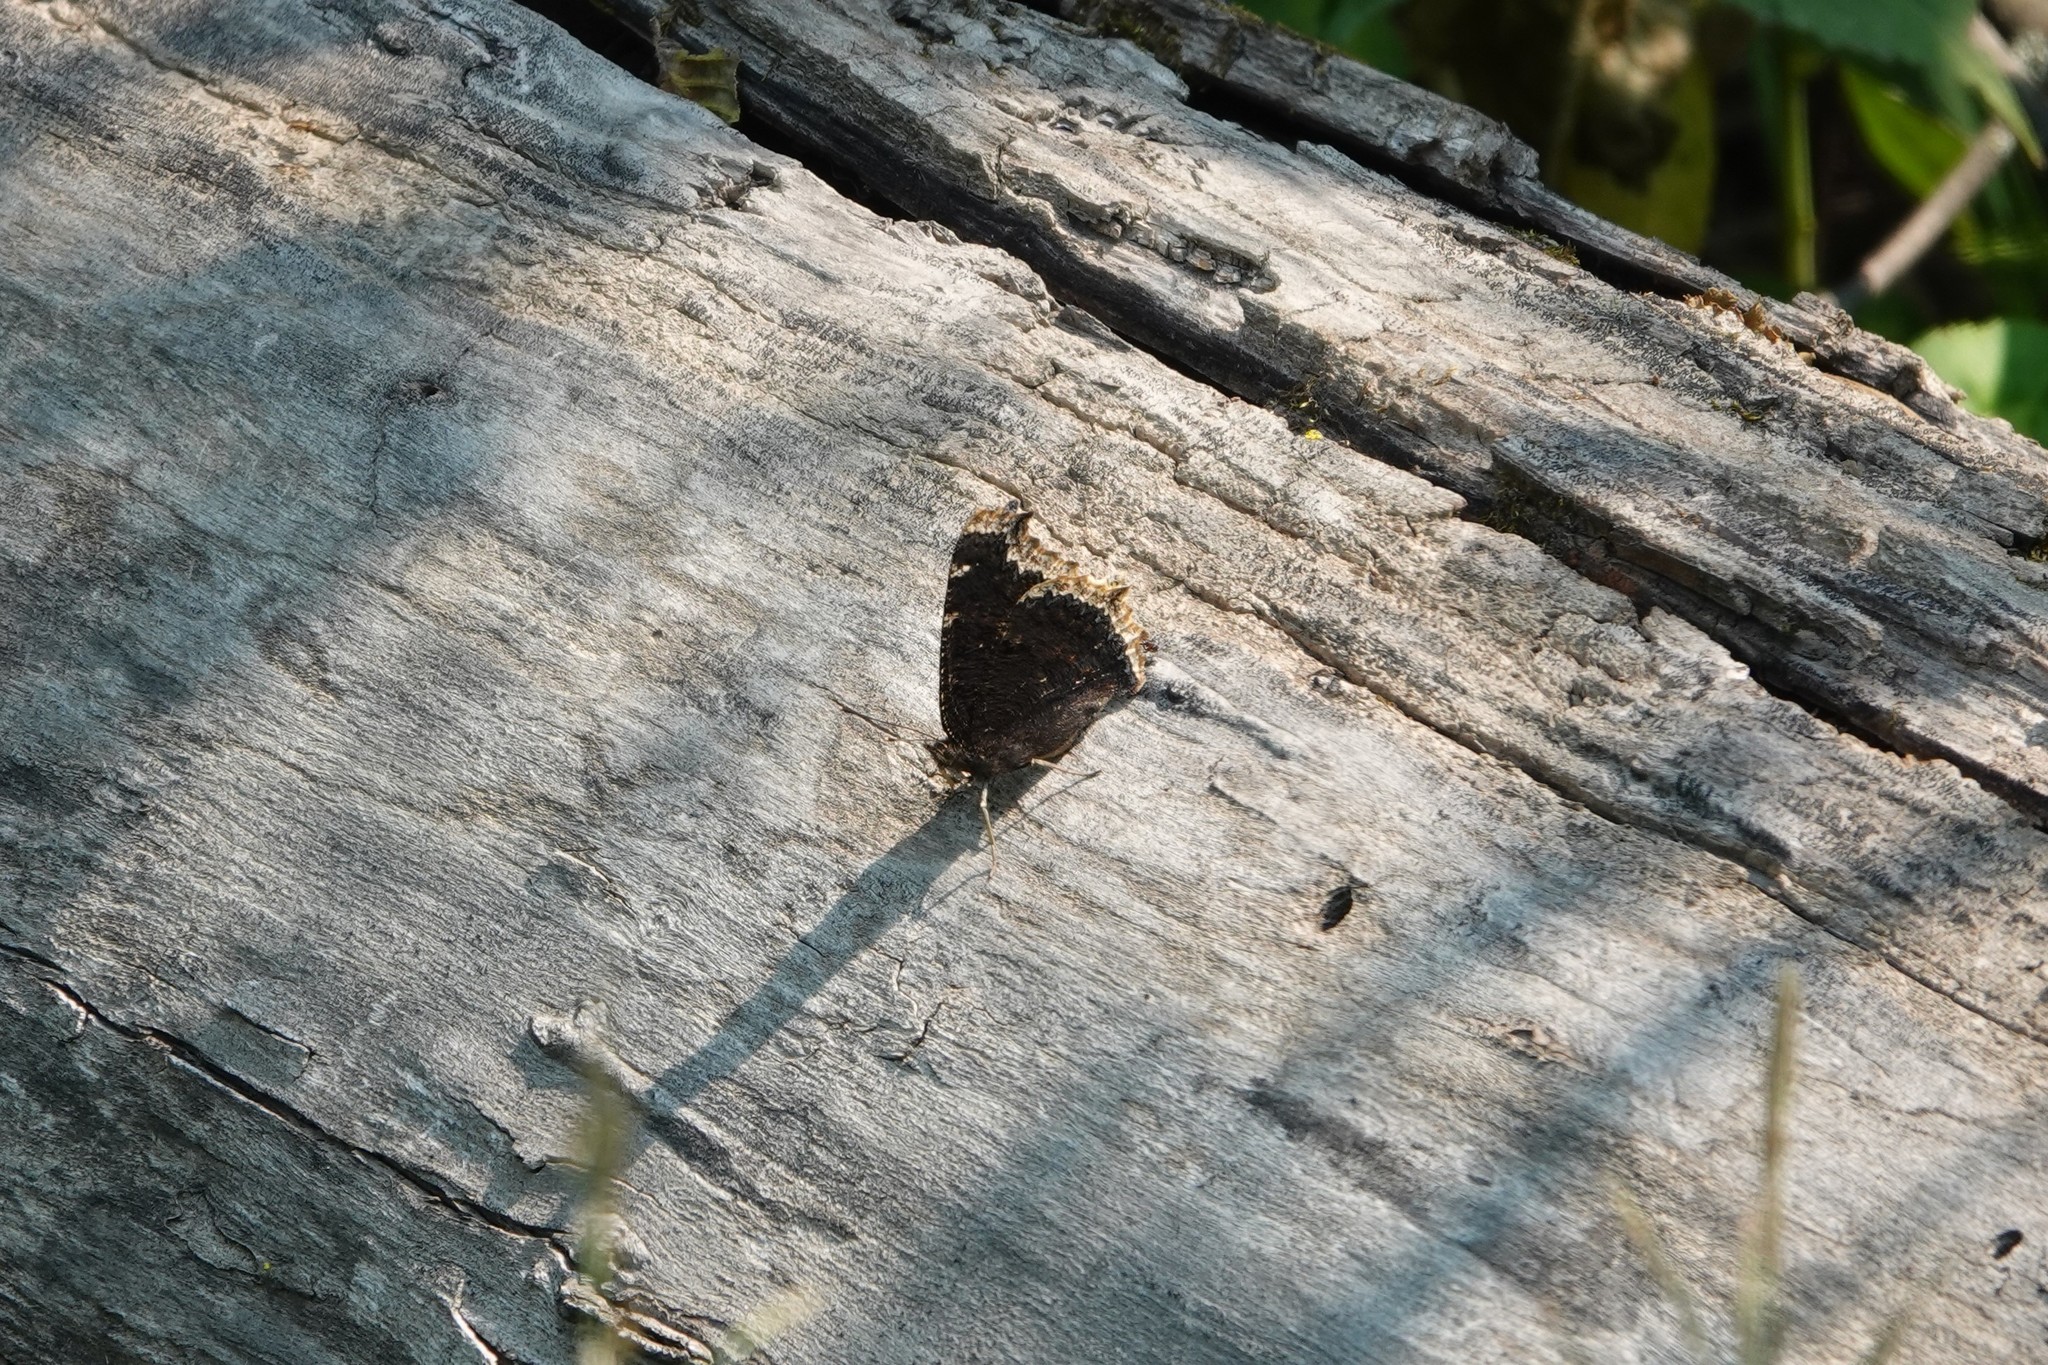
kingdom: Animalia
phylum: Arthropoda
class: Insecta
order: Lepidoptera
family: Nymphalidae
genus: Nymphalis
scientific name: Nymphalis antiopa
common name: Camberwell beauty
